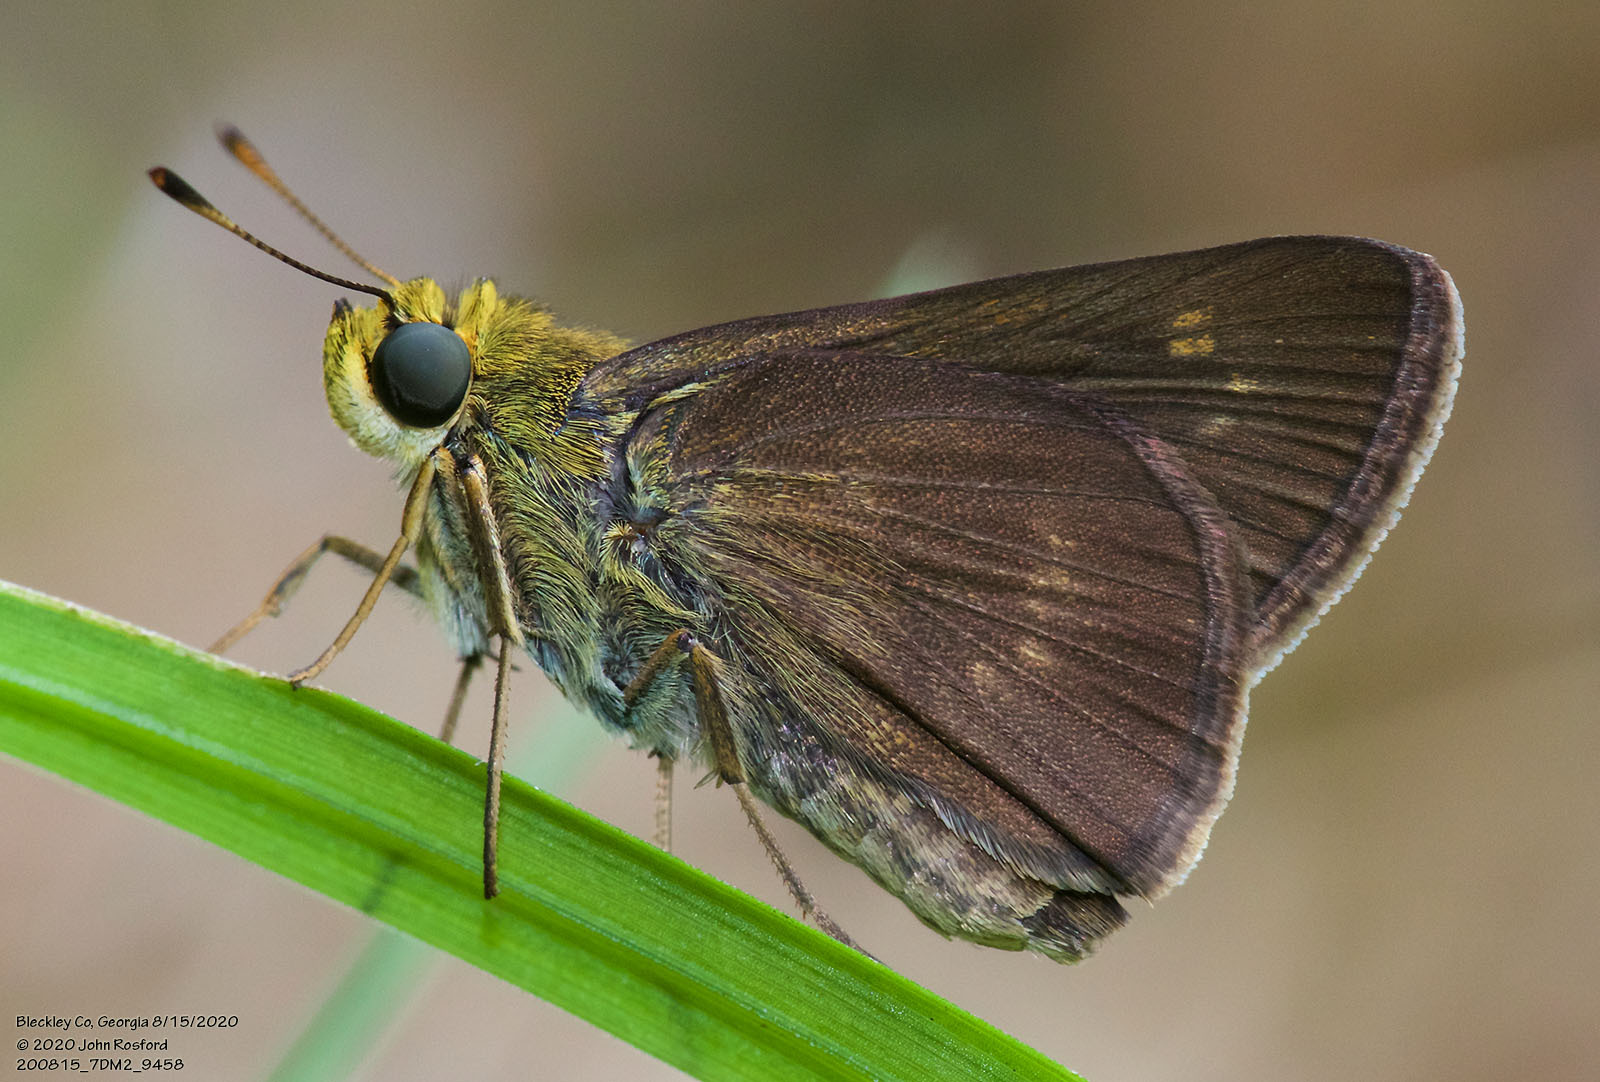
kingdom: Animalia
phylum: Arthropoda
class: Insecta
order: Lepidoptera
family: Hesperiidae
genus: Euphyes
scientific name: Euphyes vestris
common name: Dun skipper
